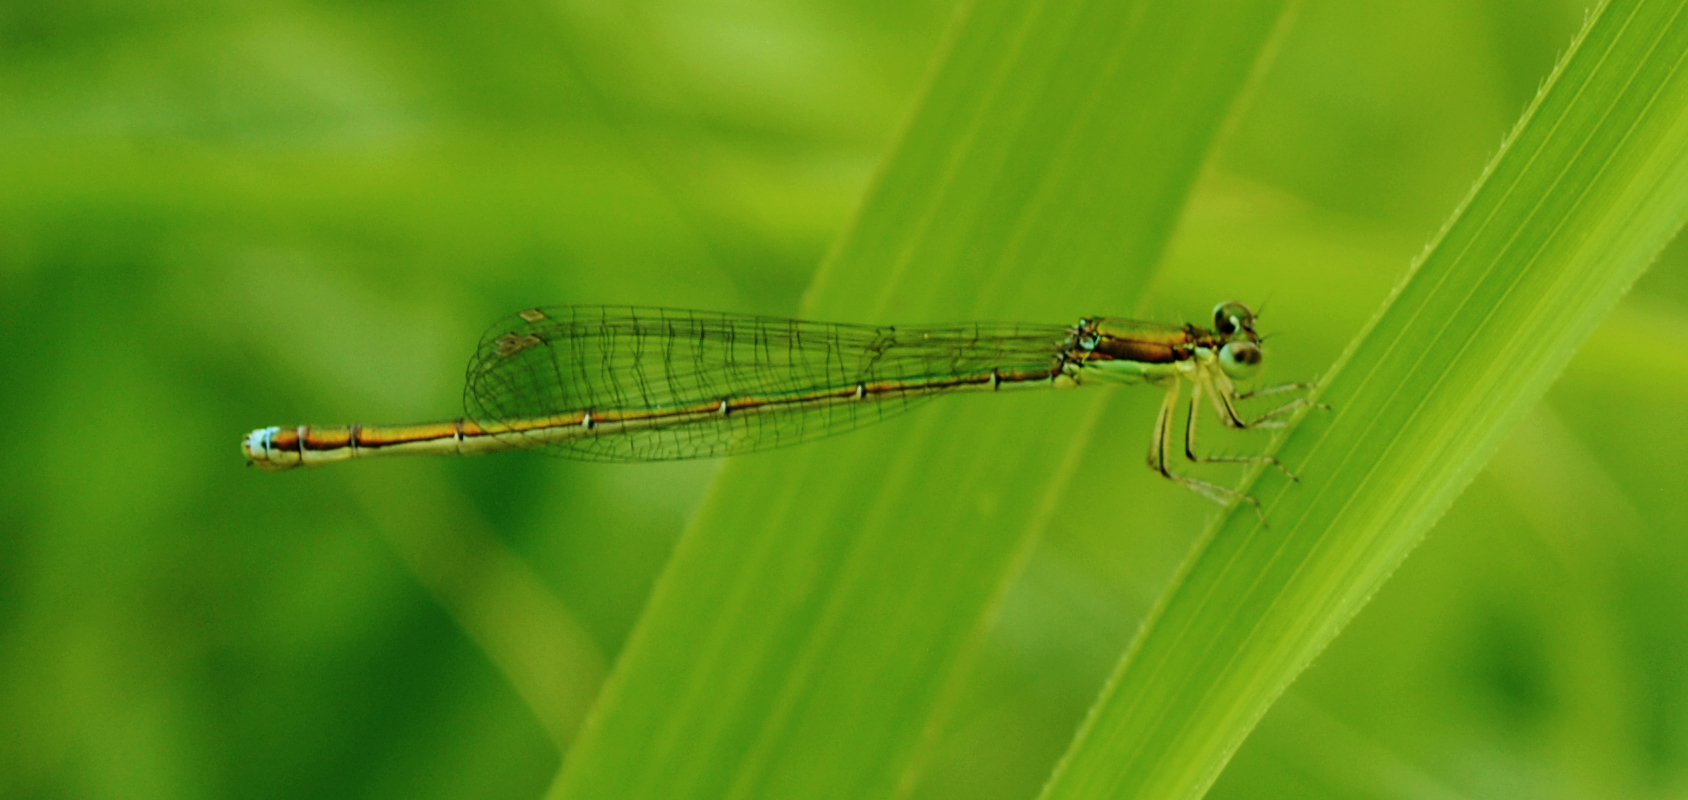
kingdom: Animalia
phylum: Arthropoda
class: Insecta
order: Odonata
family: Coenagrionidae
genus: Nehalennia
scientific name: Nehalennia irene
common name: Sedge sprite
